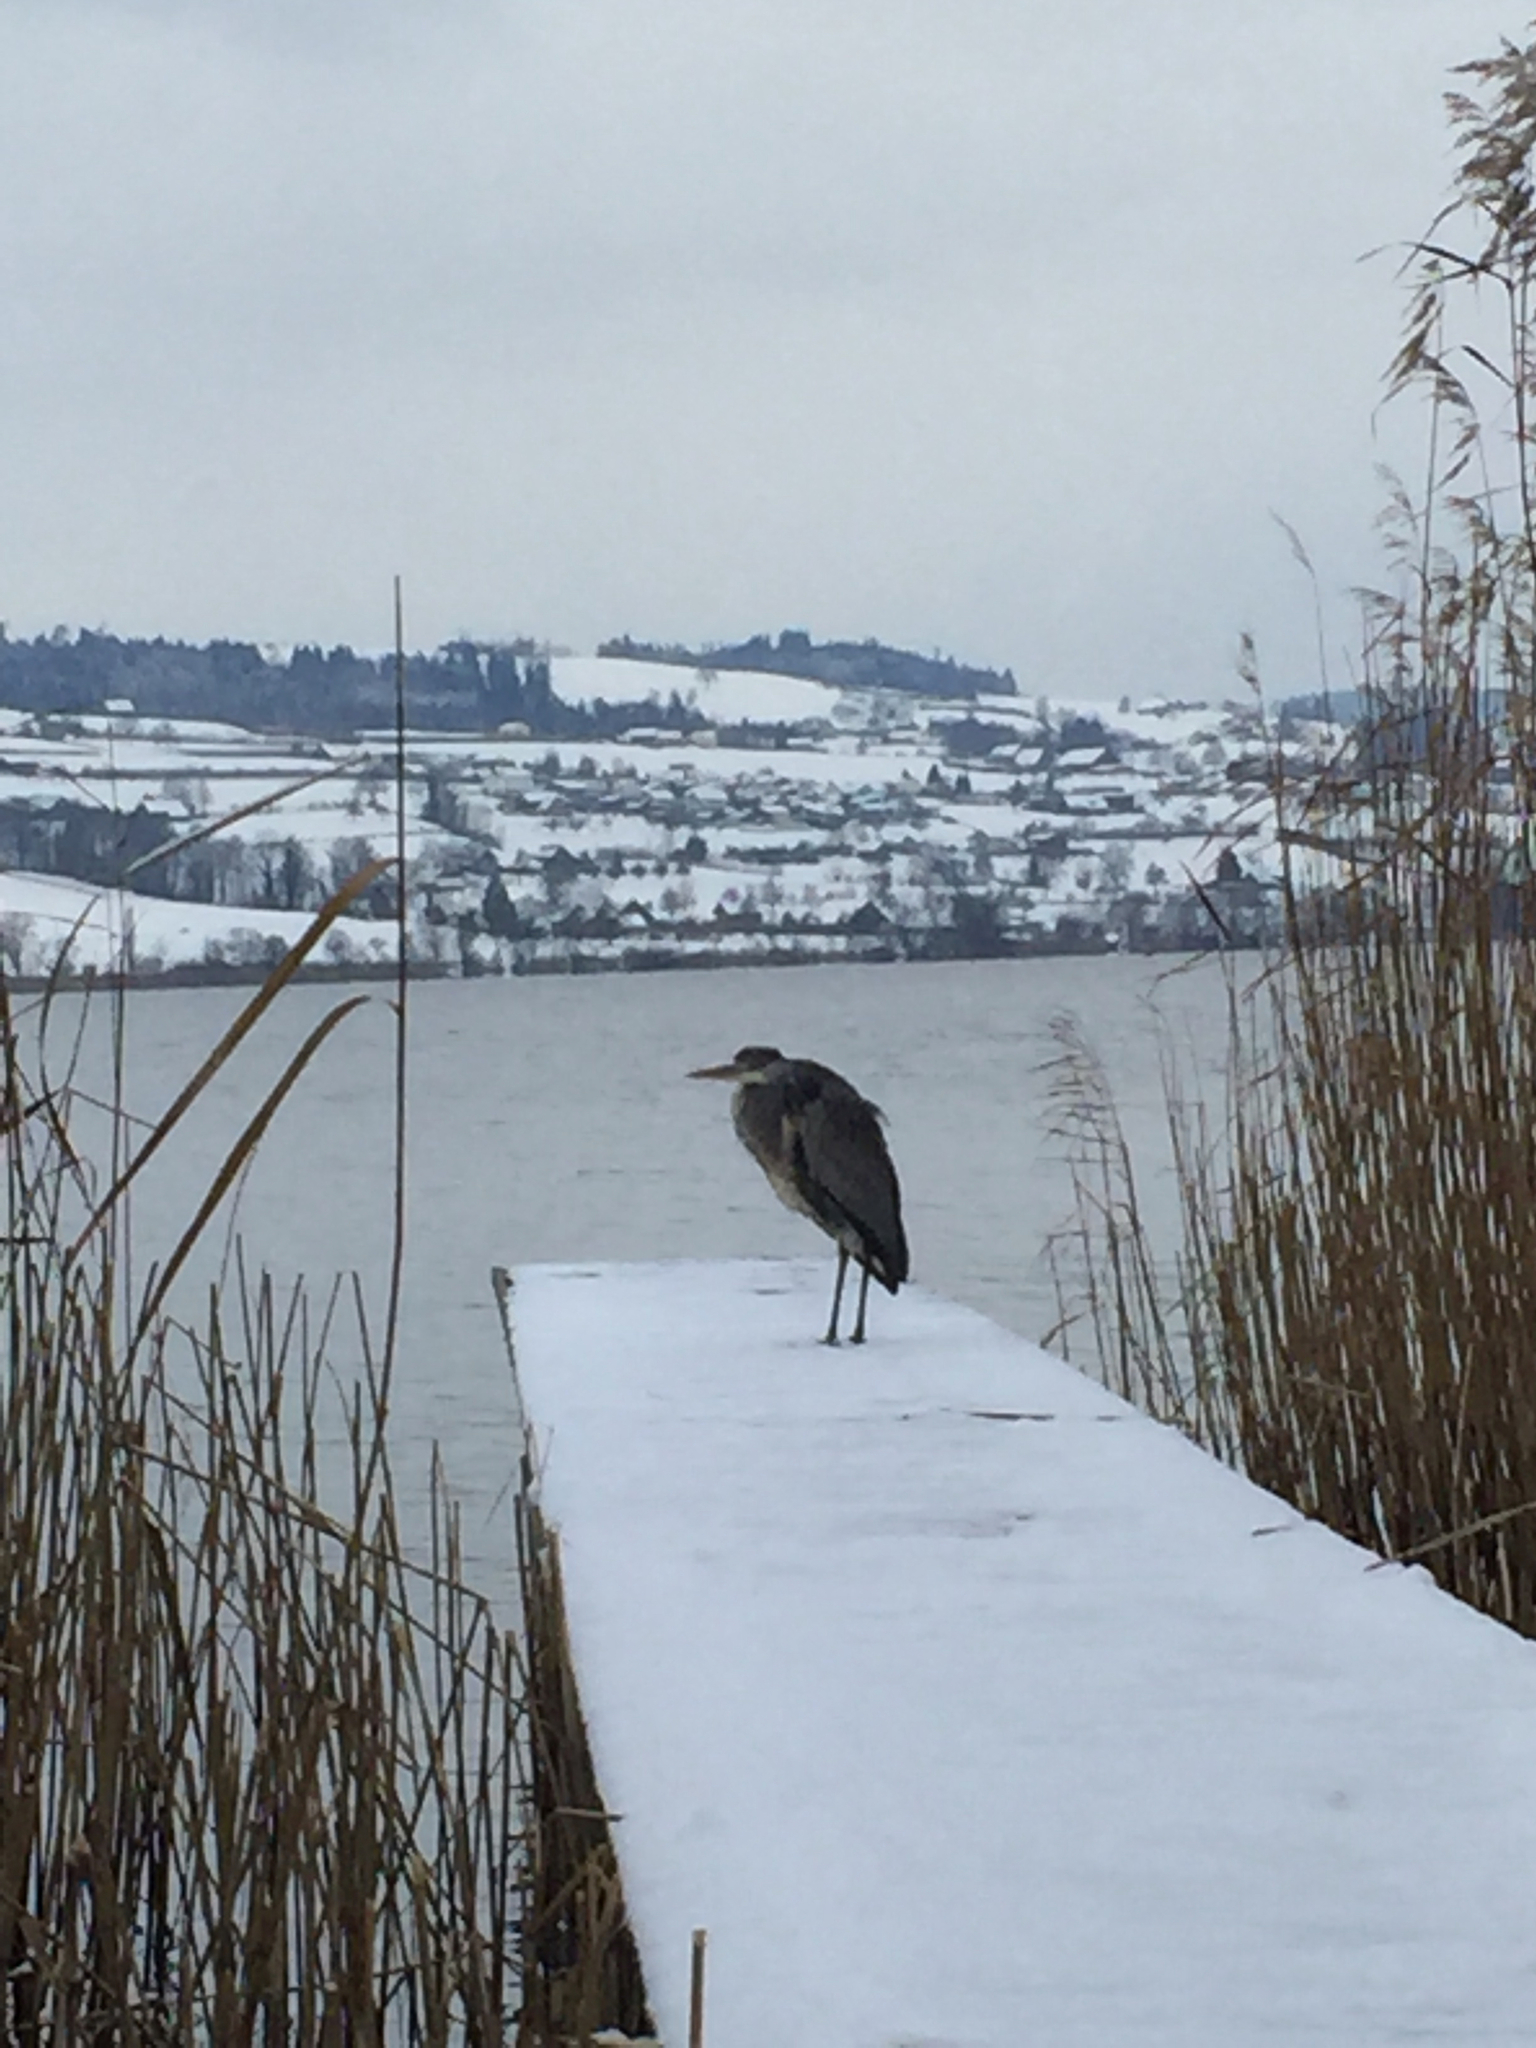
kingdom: Animalia
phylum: Chordata
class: Aves
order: Pelecaniformes
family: Ardeidae
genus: Ardea
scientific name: Ardea cinerea
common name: Grey heron
